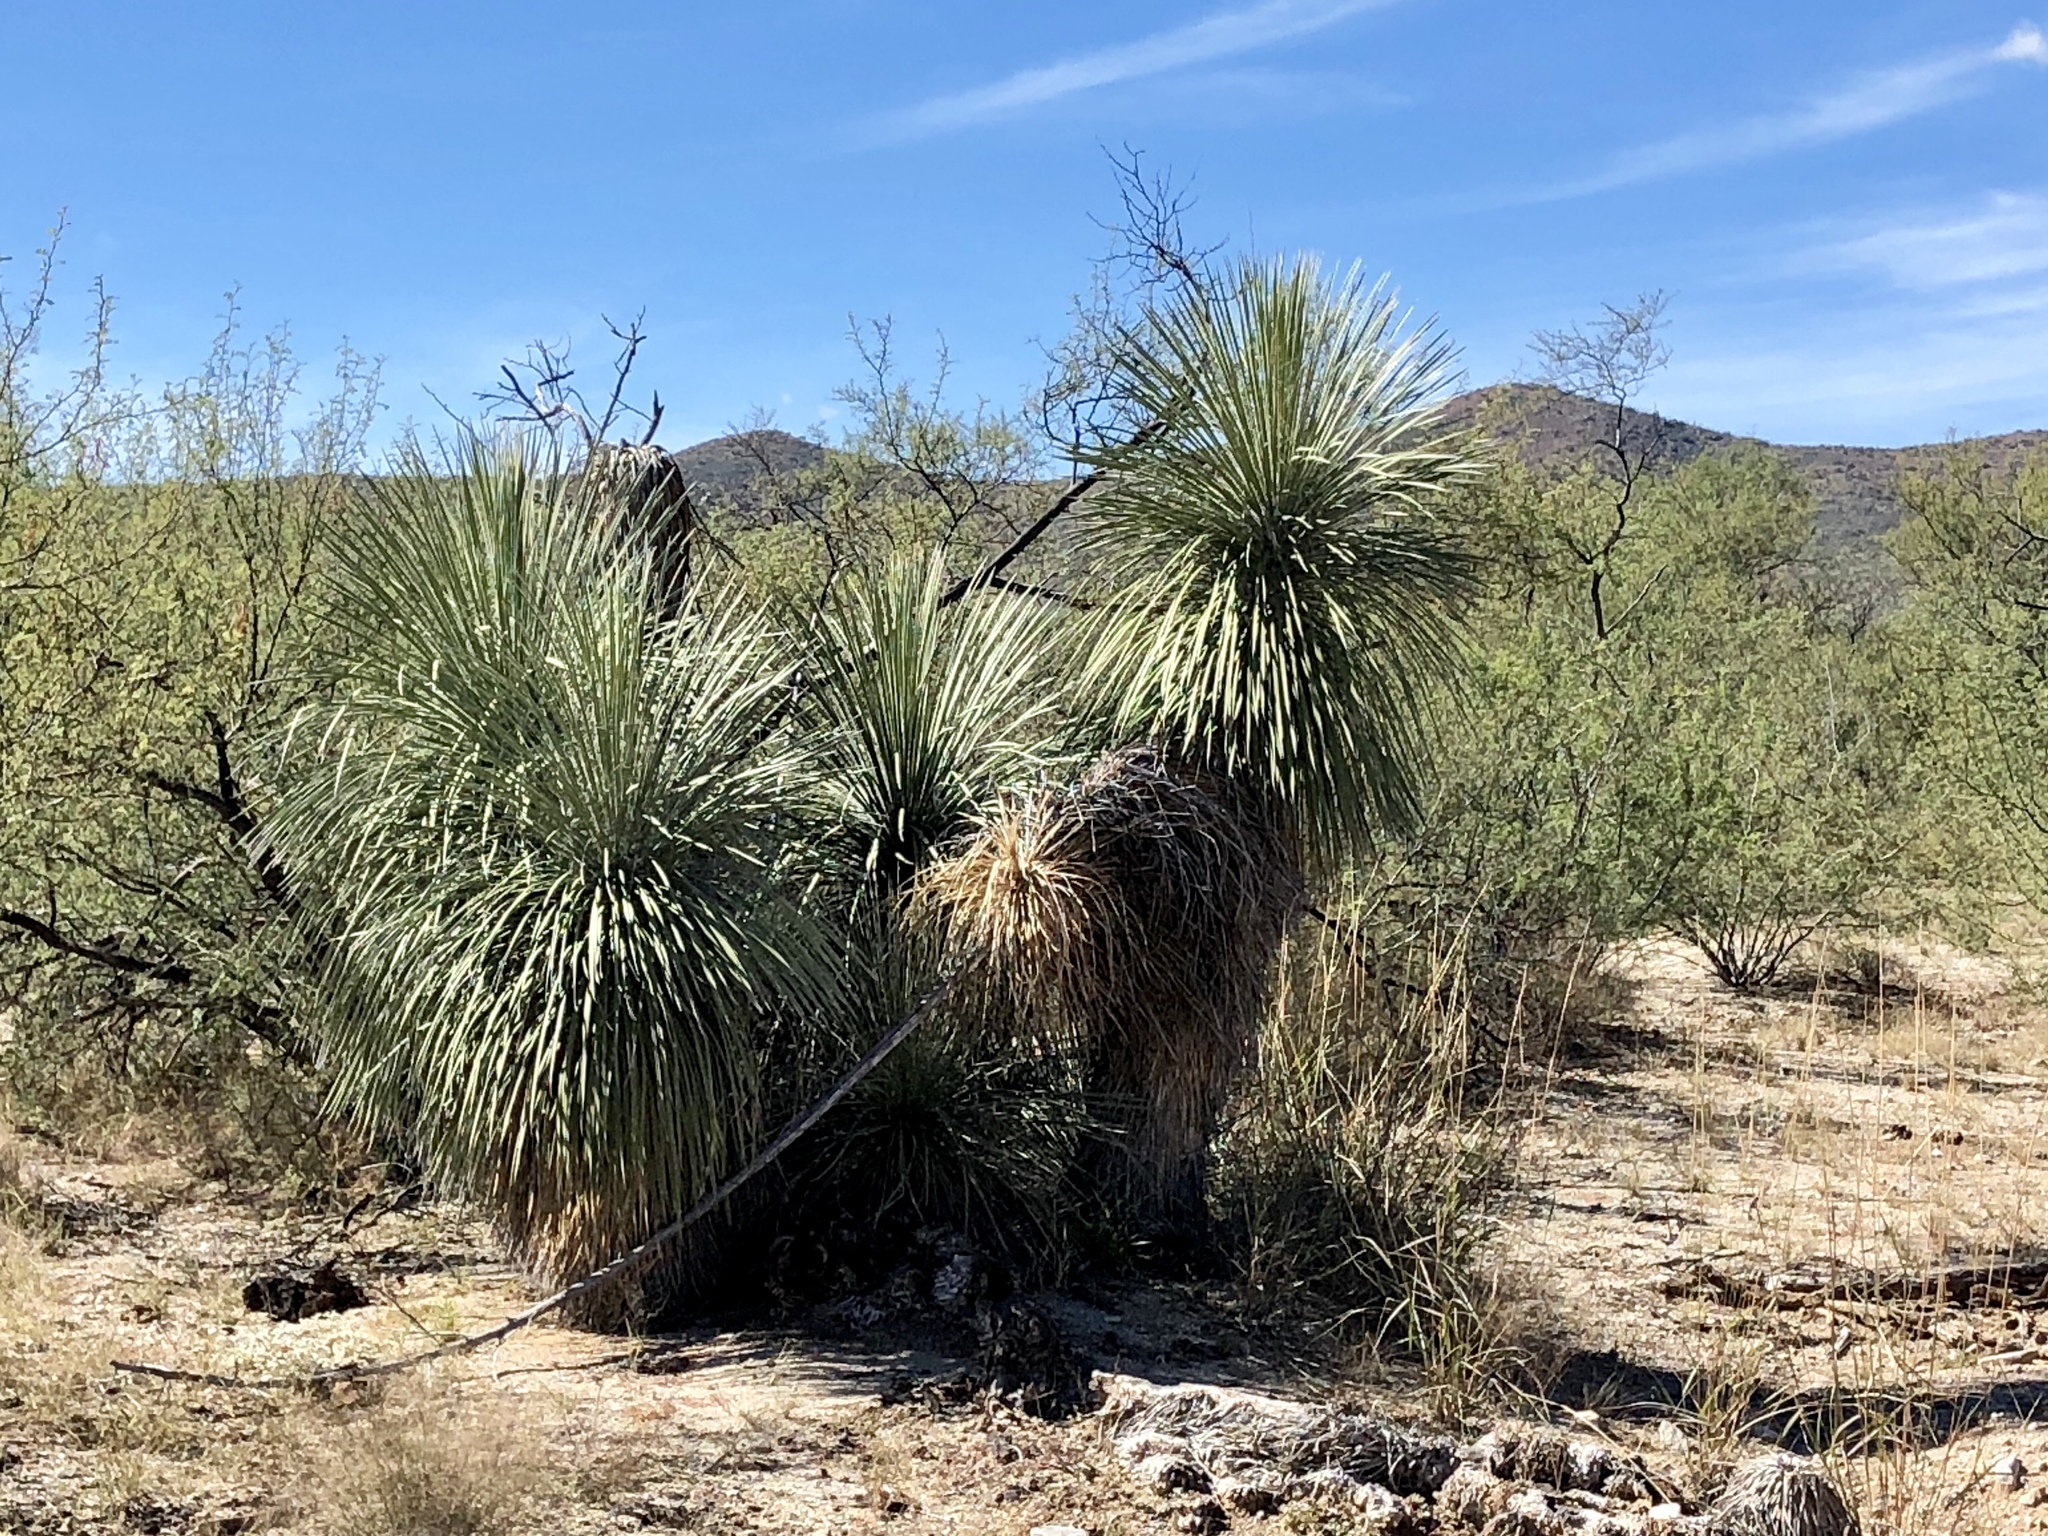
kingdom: Plantae
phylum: Tracheophyta
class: Liliopsida
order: Asparagales
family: Asparagaceae
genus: Yucca
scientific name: Yucca elata
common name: Palmella
